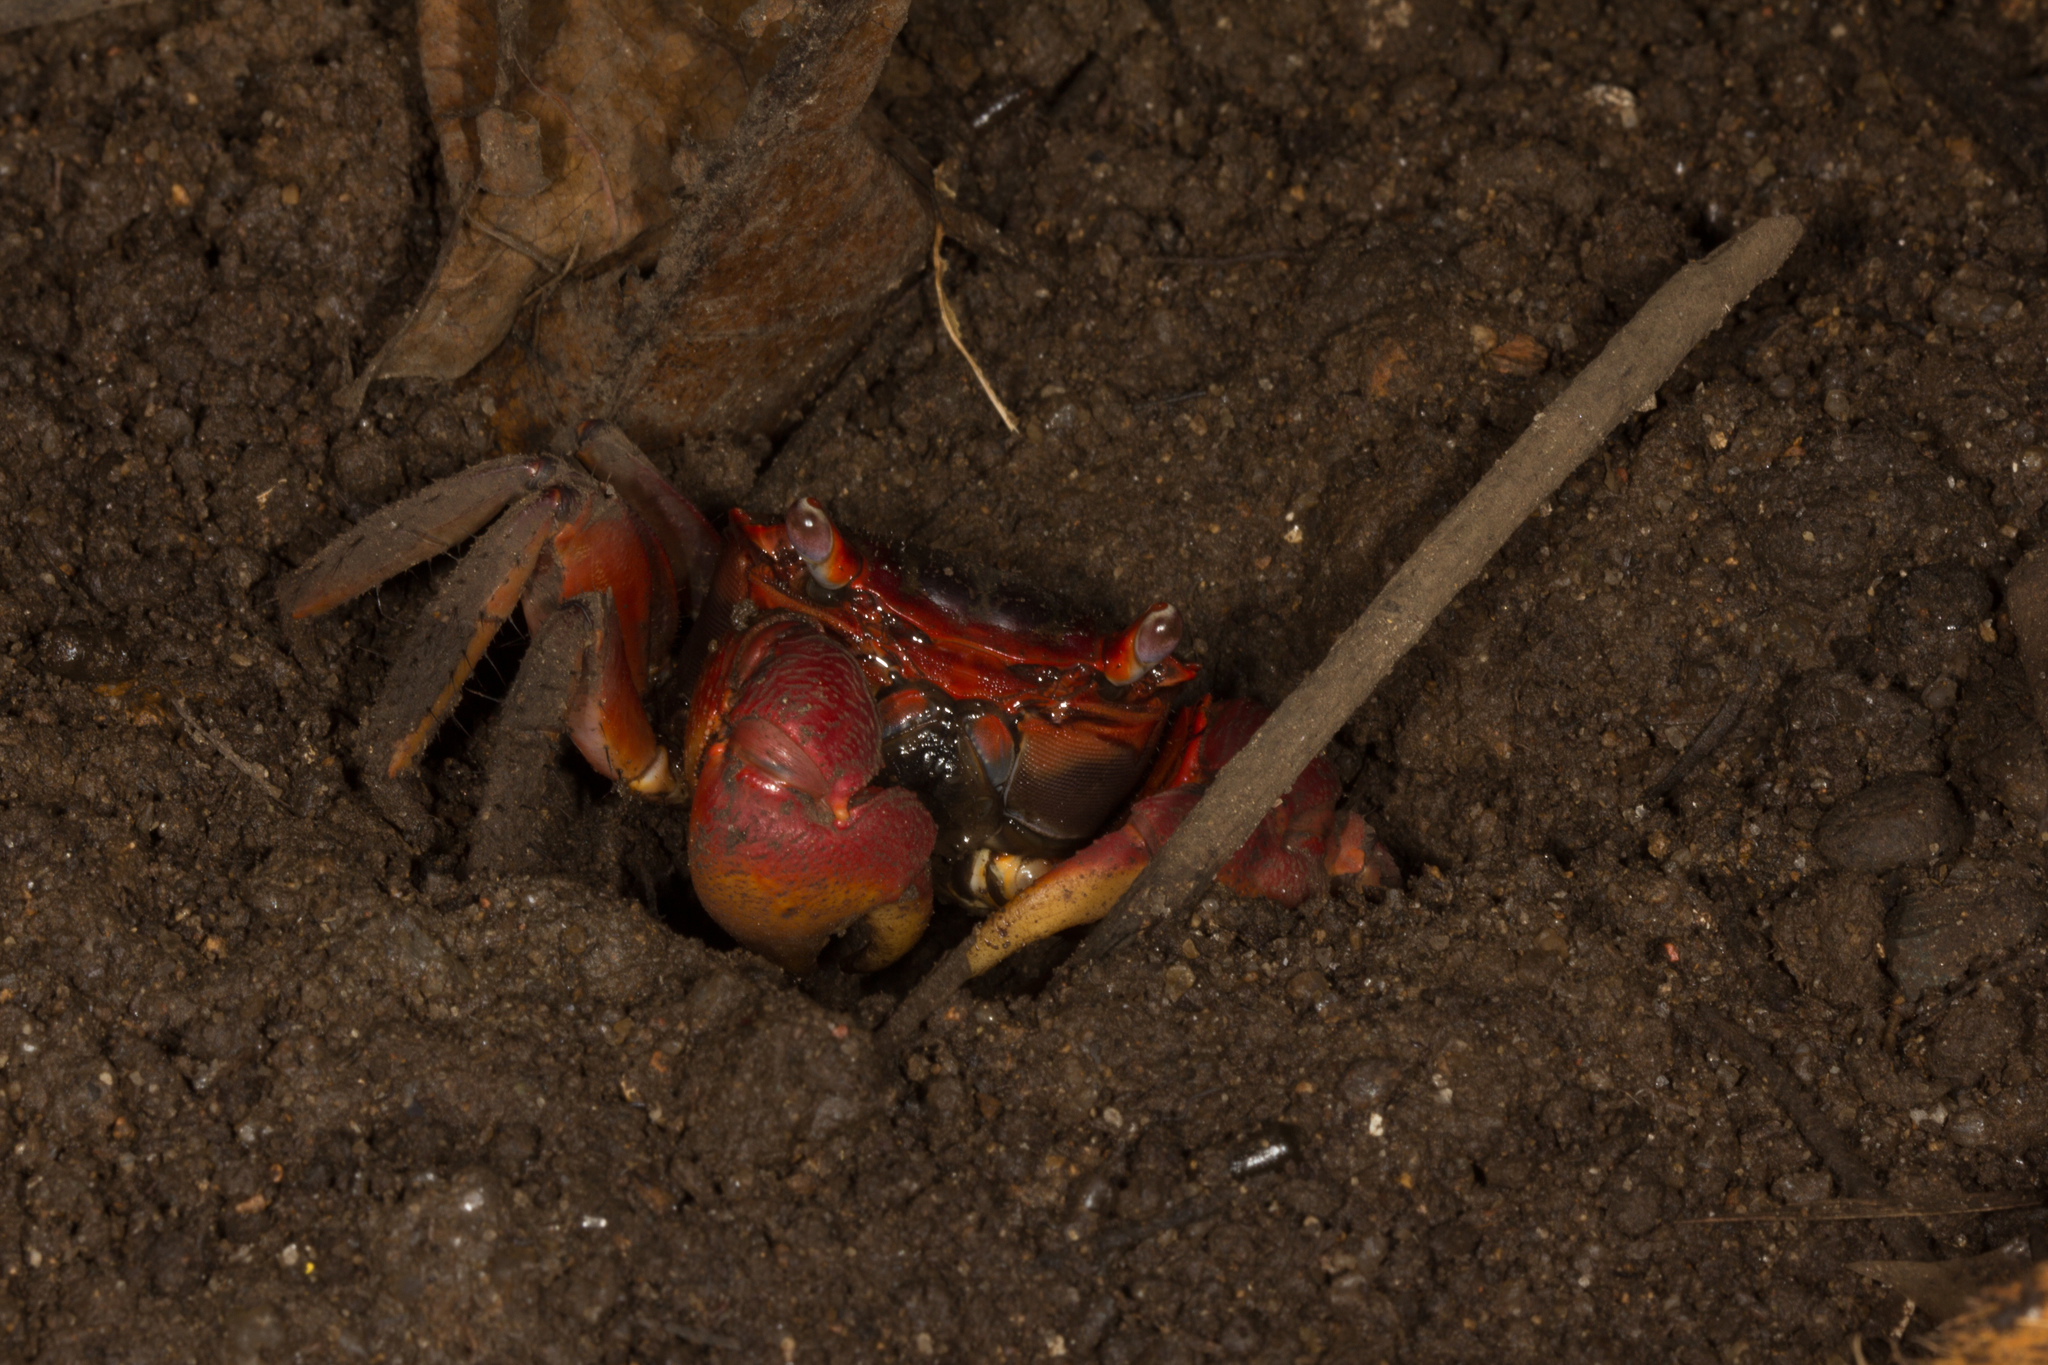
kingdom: Animalia
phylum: Arthropoda
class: Malacostraca
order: Decapoda
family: Sesarmidae
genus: Neosarmatium
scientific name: Neosarmatium meinerti
